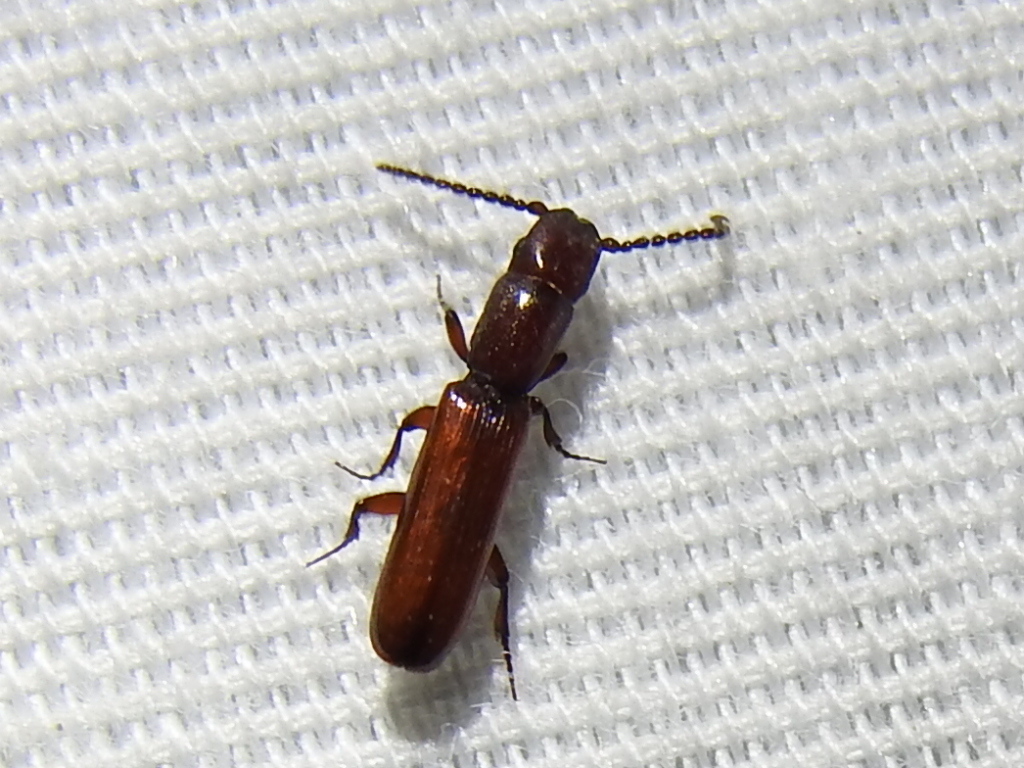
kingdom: Animalia
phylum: Arthropoda
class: Insecta
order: Coleoptera
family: Passandridae
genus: Taphroscelidia
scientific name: Taphroscelidia linearis
